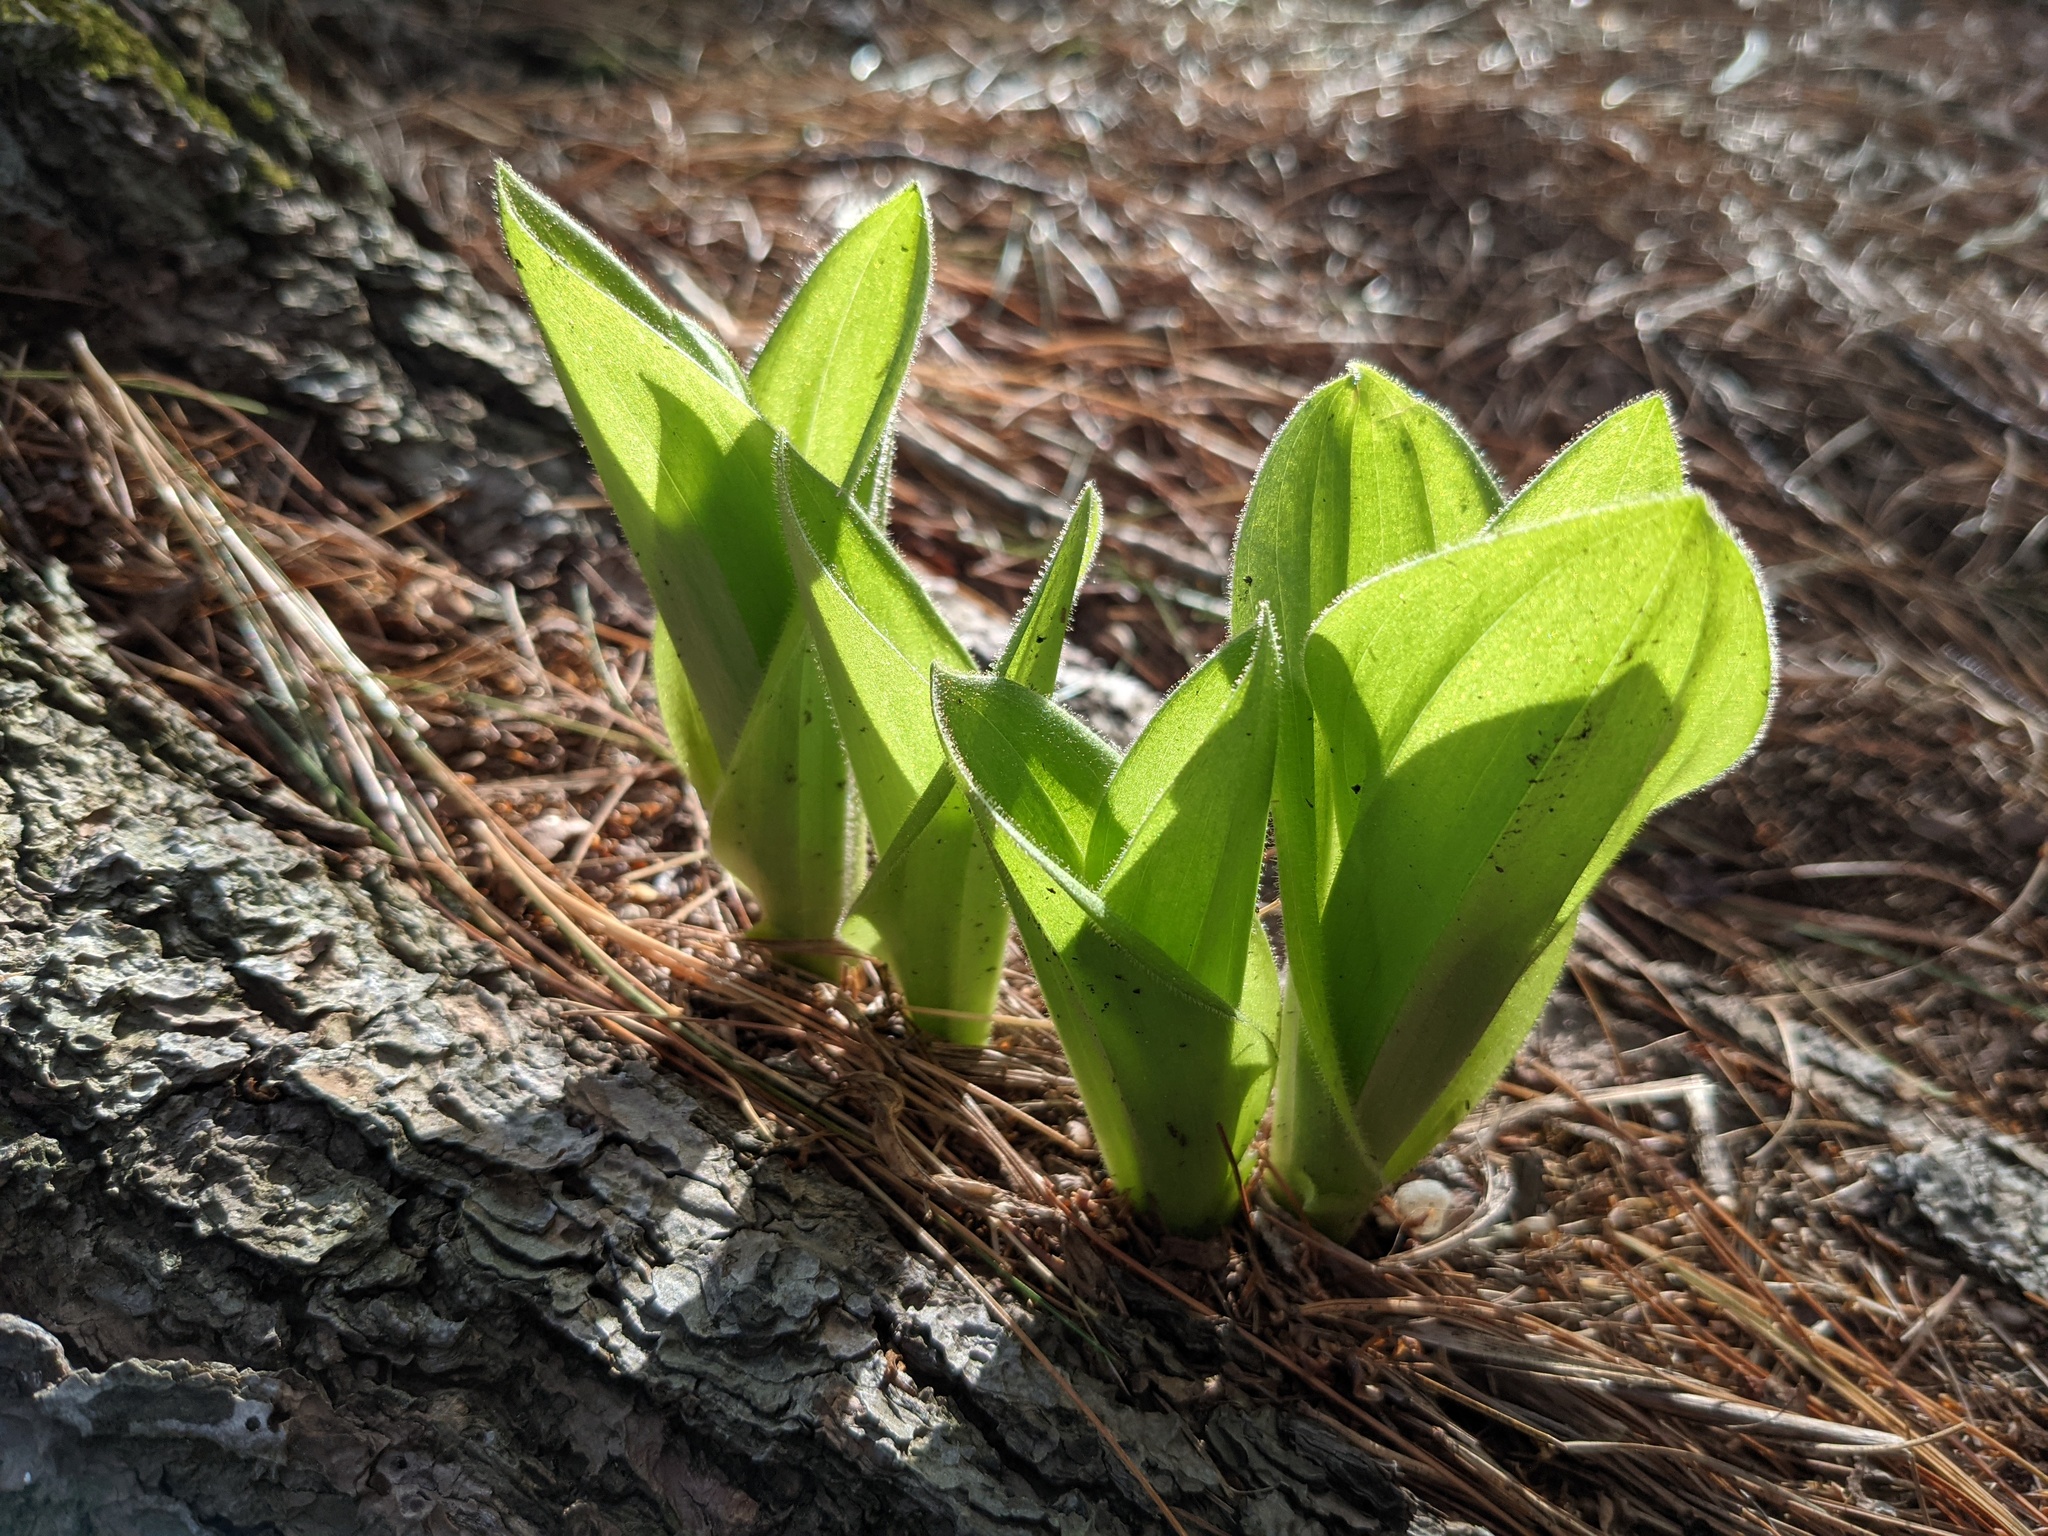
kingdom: Plantae
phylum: Tracheophyta
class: Liliopsida
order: Asparagales
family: Orchidaceae
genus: Cypripedium
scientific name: Cypripedium acaule
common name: Pink lady's-slipper
